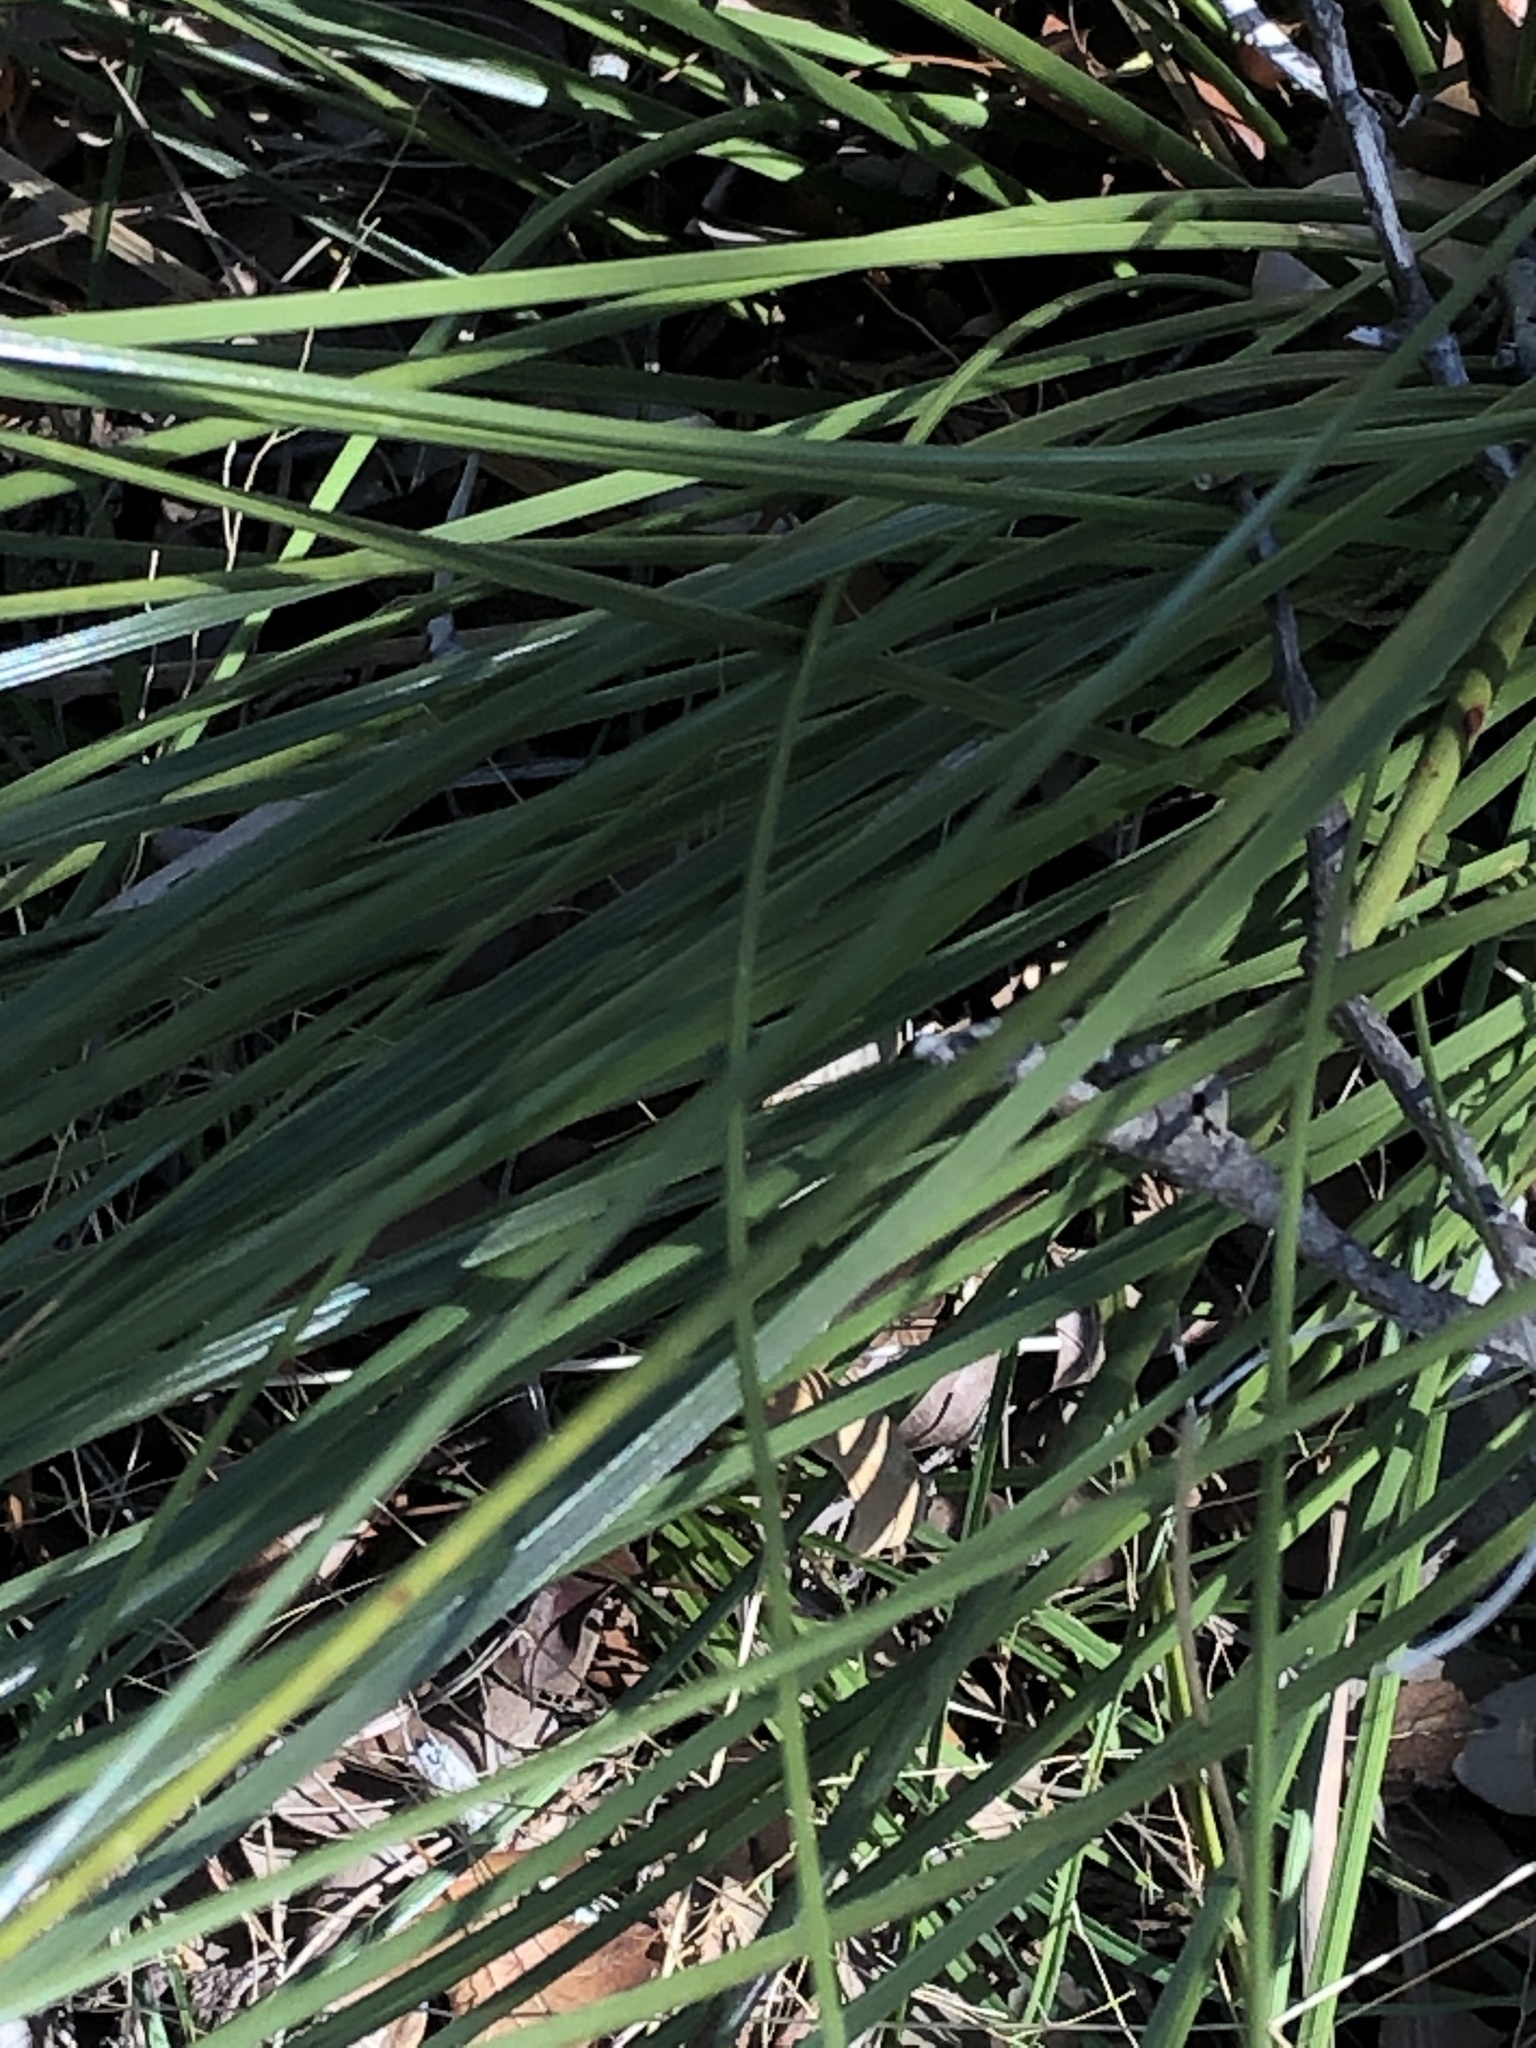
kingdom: Plantae
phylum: Tracheophyta
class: Liliopsida
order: Asparagales
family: Asparagaceae
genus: Nolina
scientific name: Nolina texana
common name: Texas sacahuiste
